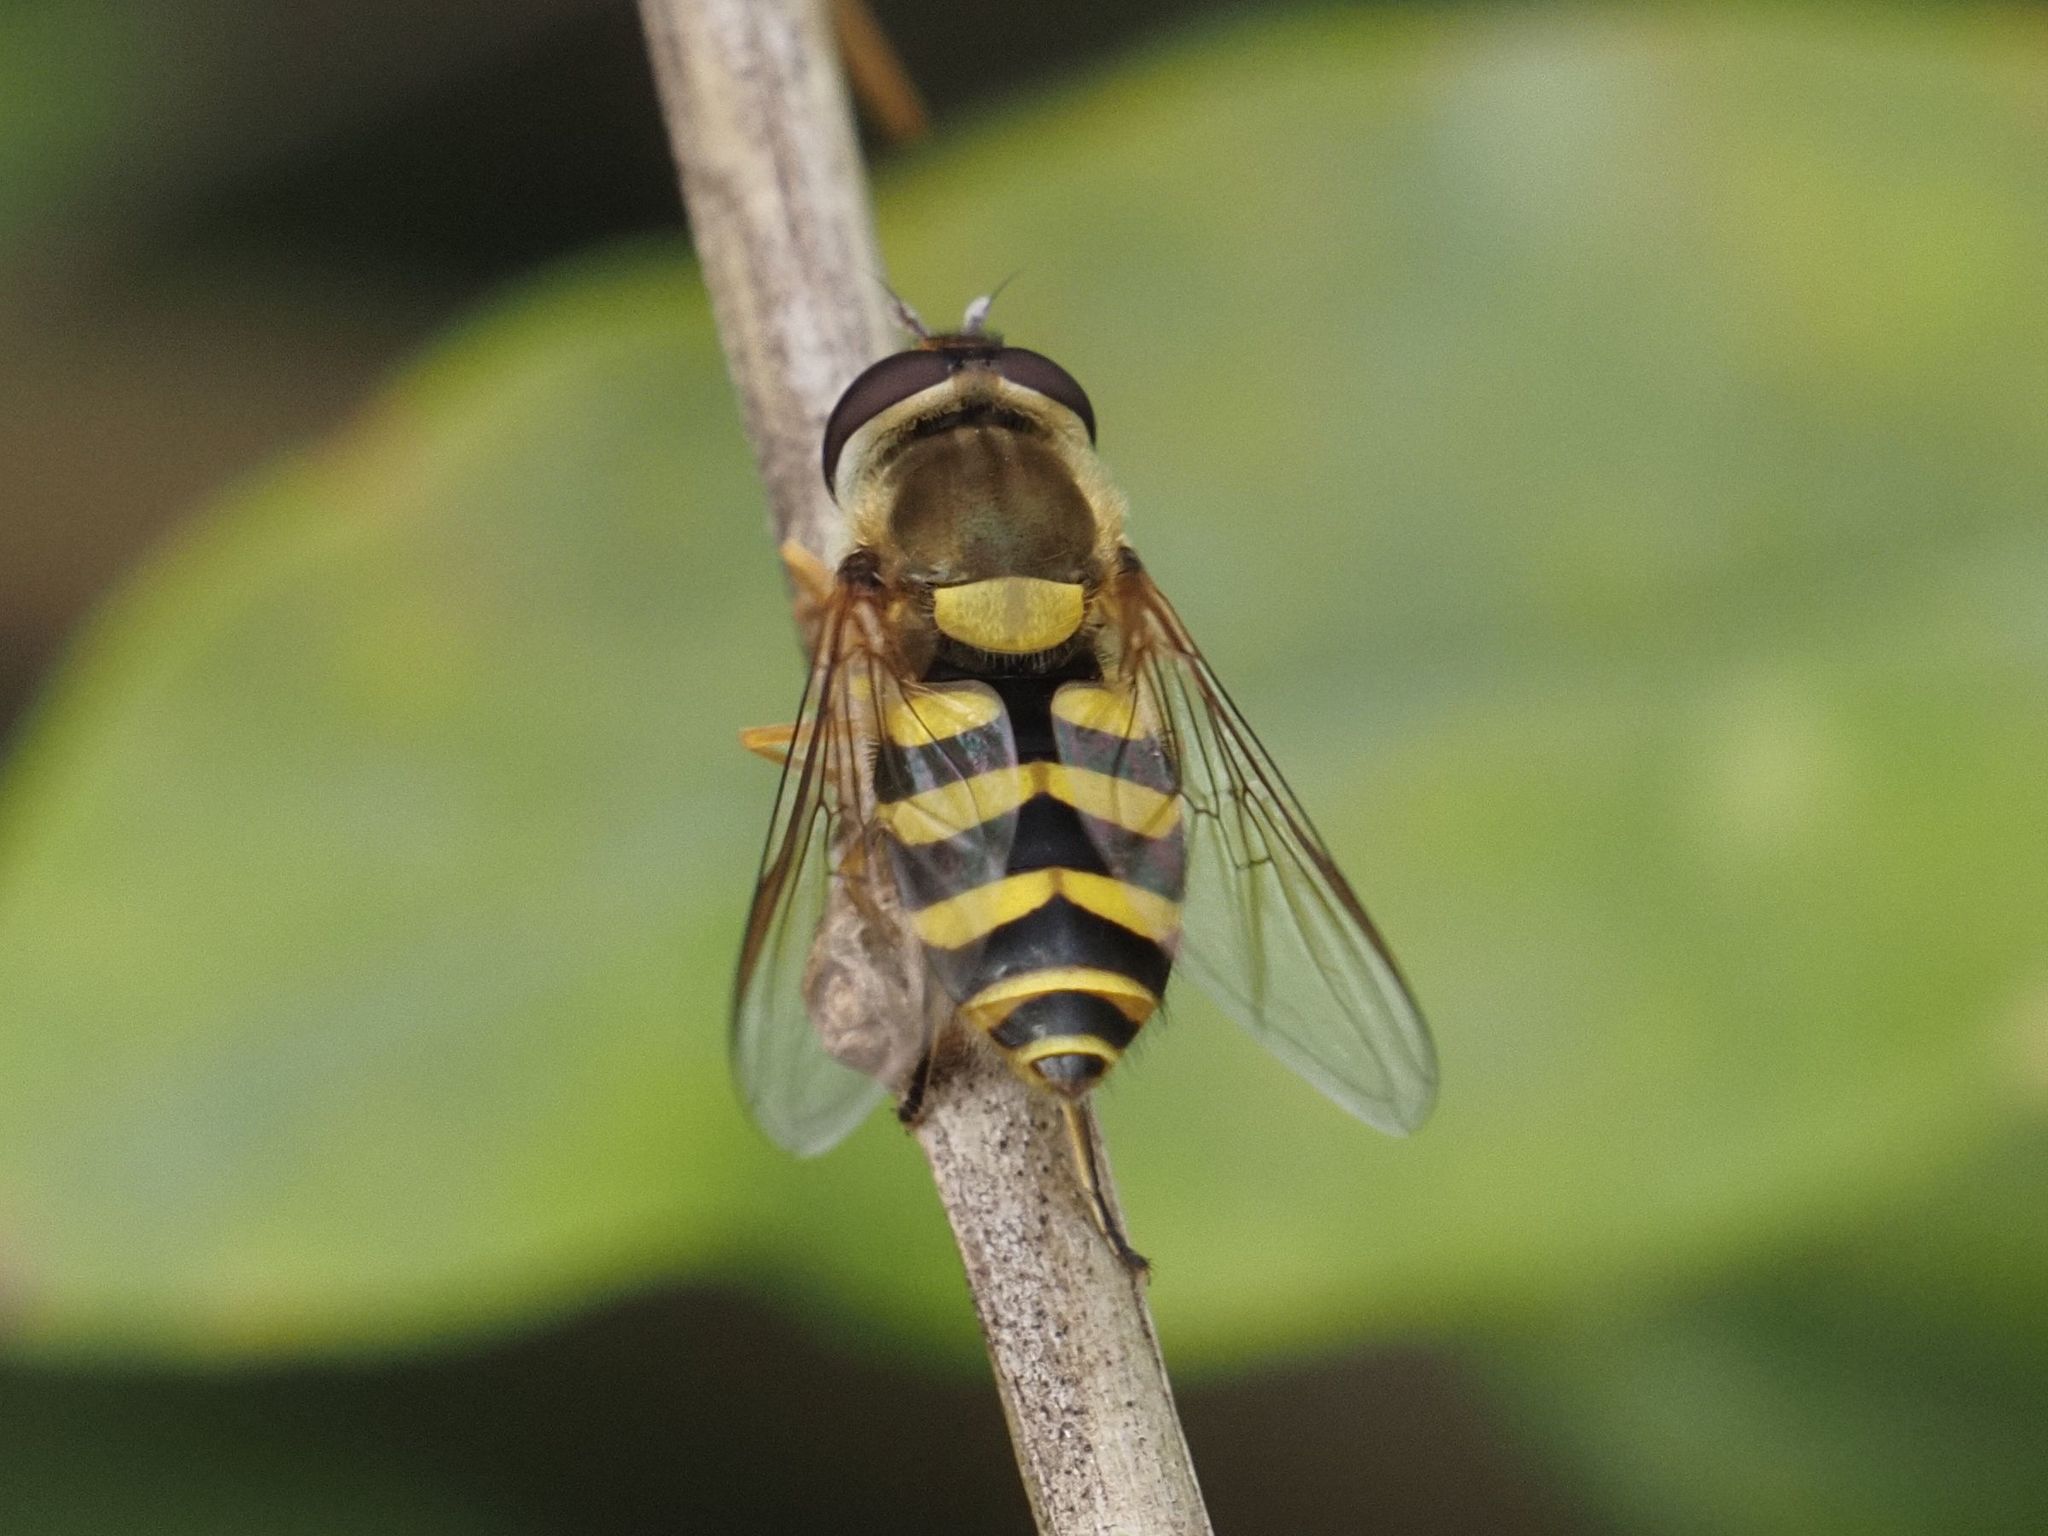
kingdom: Animalia
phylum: Arthropoda
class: Insecta
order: Diptera
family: Syrphidae
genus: Syrphus
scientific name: Syrphus
